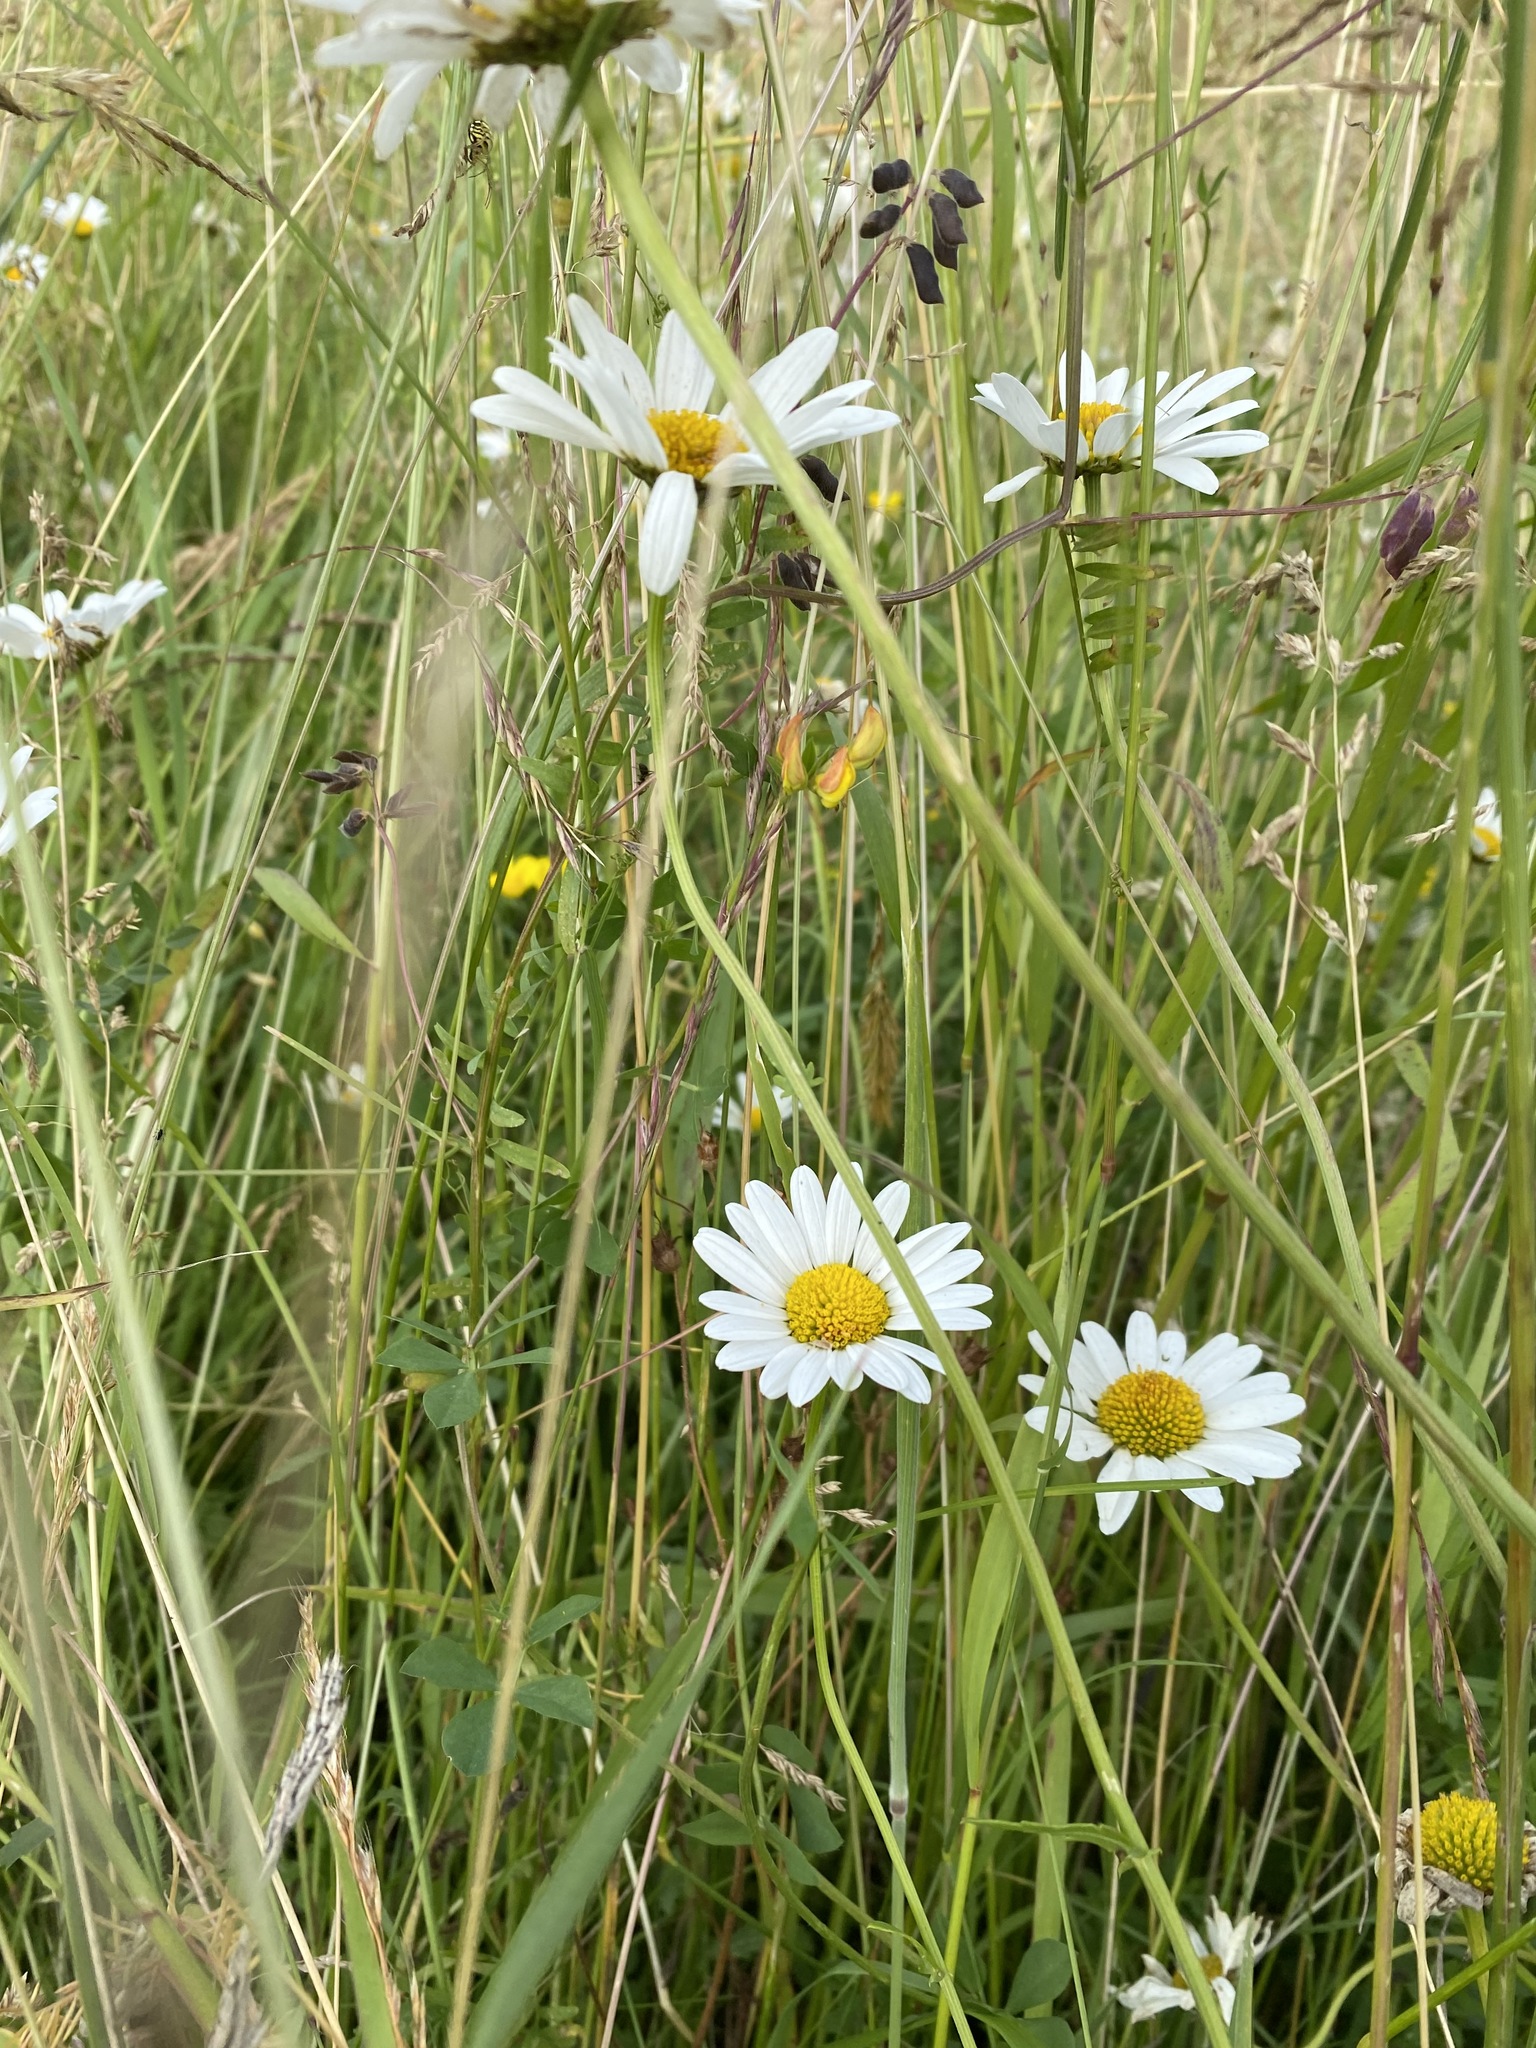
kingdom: Plantae
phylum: Tracheophyta
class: Magnoliopsida
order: Asterales
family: Asteraceae
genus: Leucanthemum
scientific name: Leucanthemum vulgare
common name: Oxeye daisy
